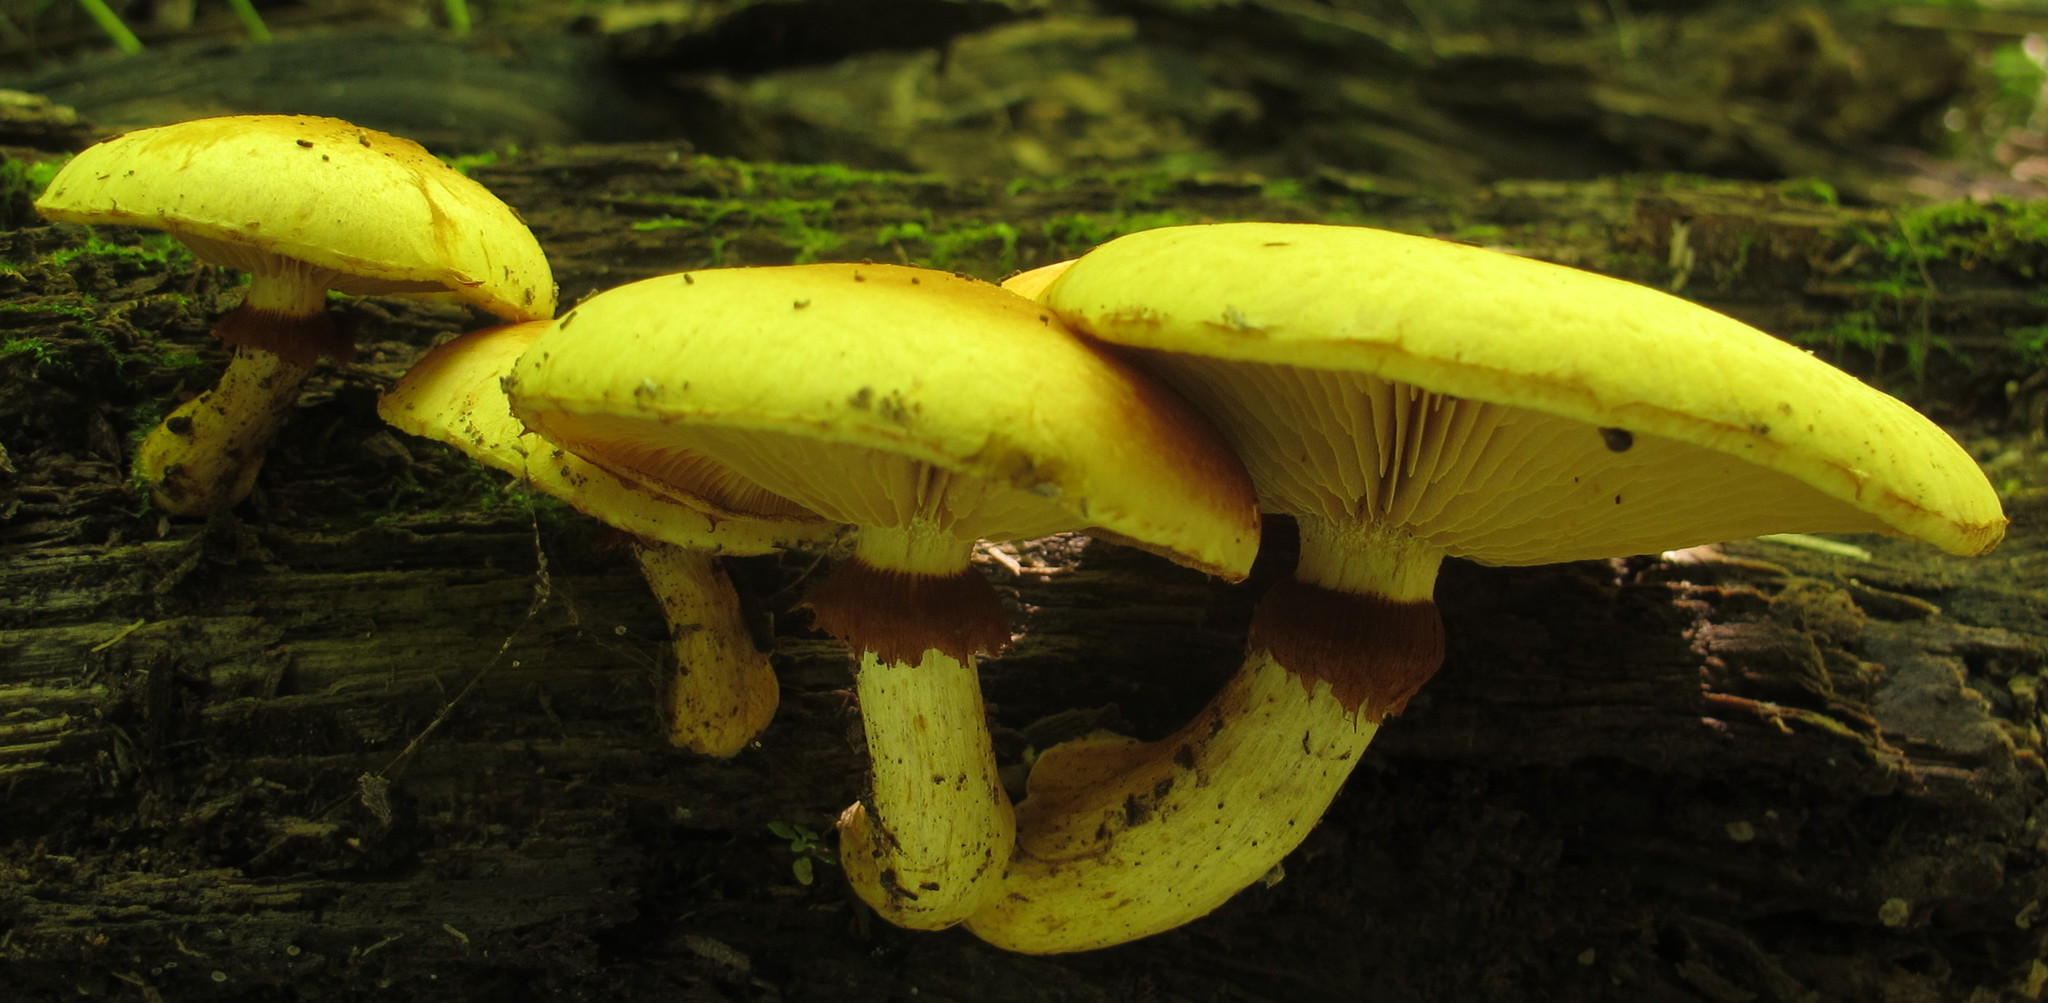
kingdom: Fungi
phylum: Basidiomycota
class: Agaricomycetes
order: Agaricales
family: Hymenogastraceae
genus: Gymnopilus
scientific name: Gymnopilus luteus
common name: Yellow gymnopilus
